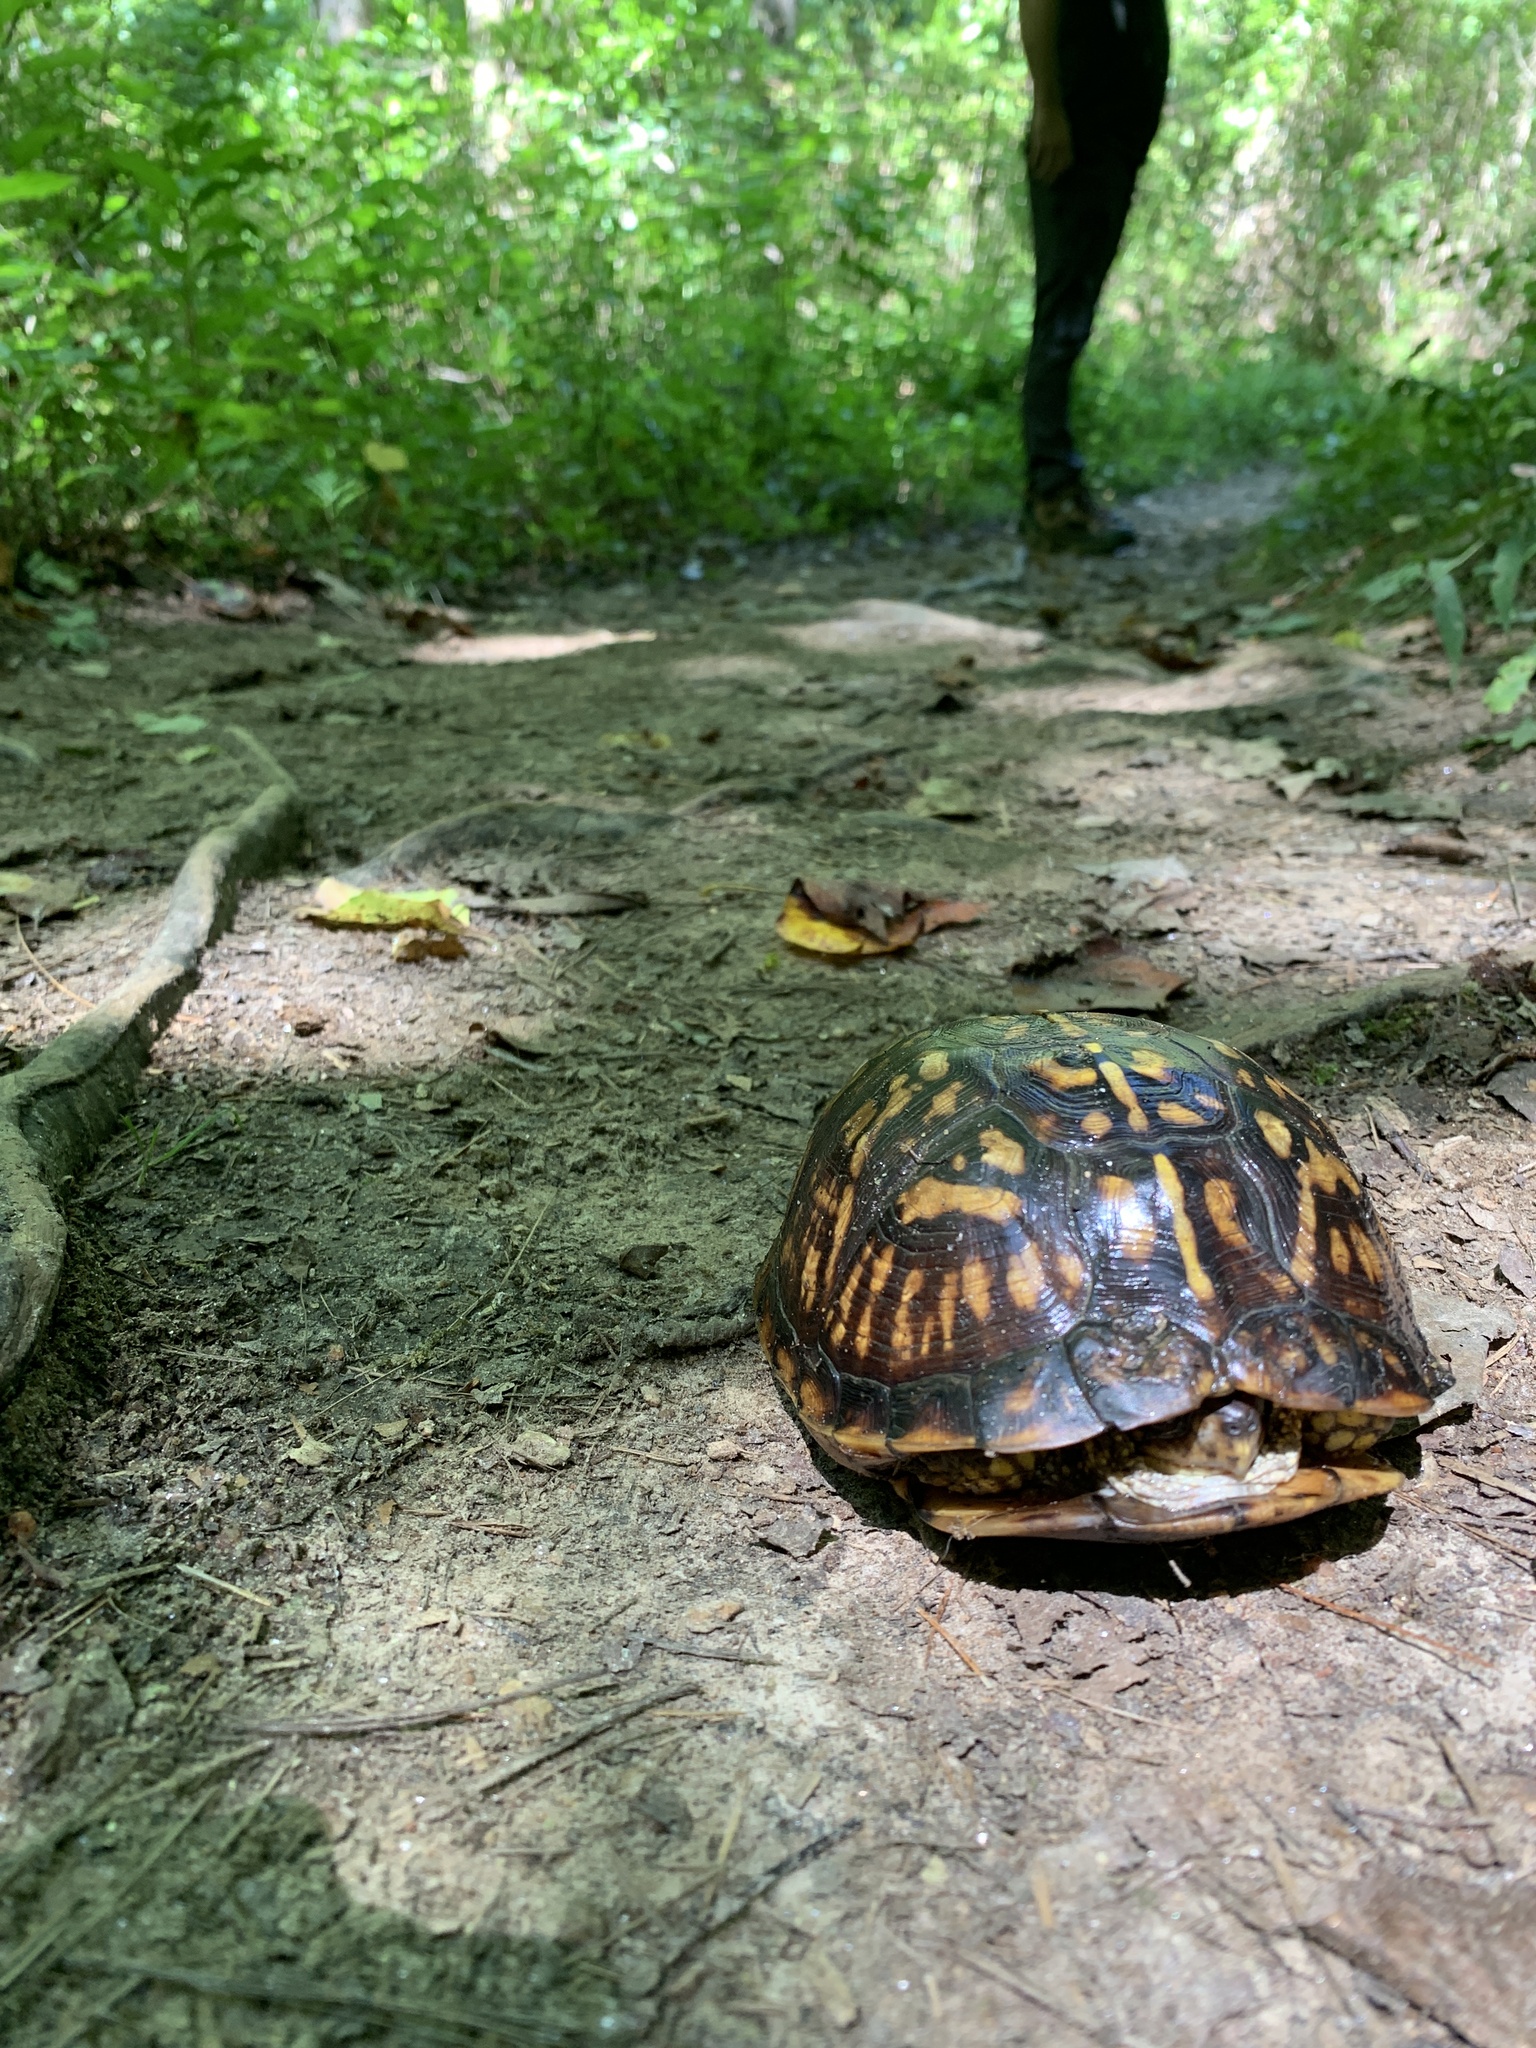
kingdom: Animalia
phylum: Chordata
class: Testudines
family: Emydidae
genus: Terrapene
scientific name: Terrapene carolina
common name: Common box turtle
